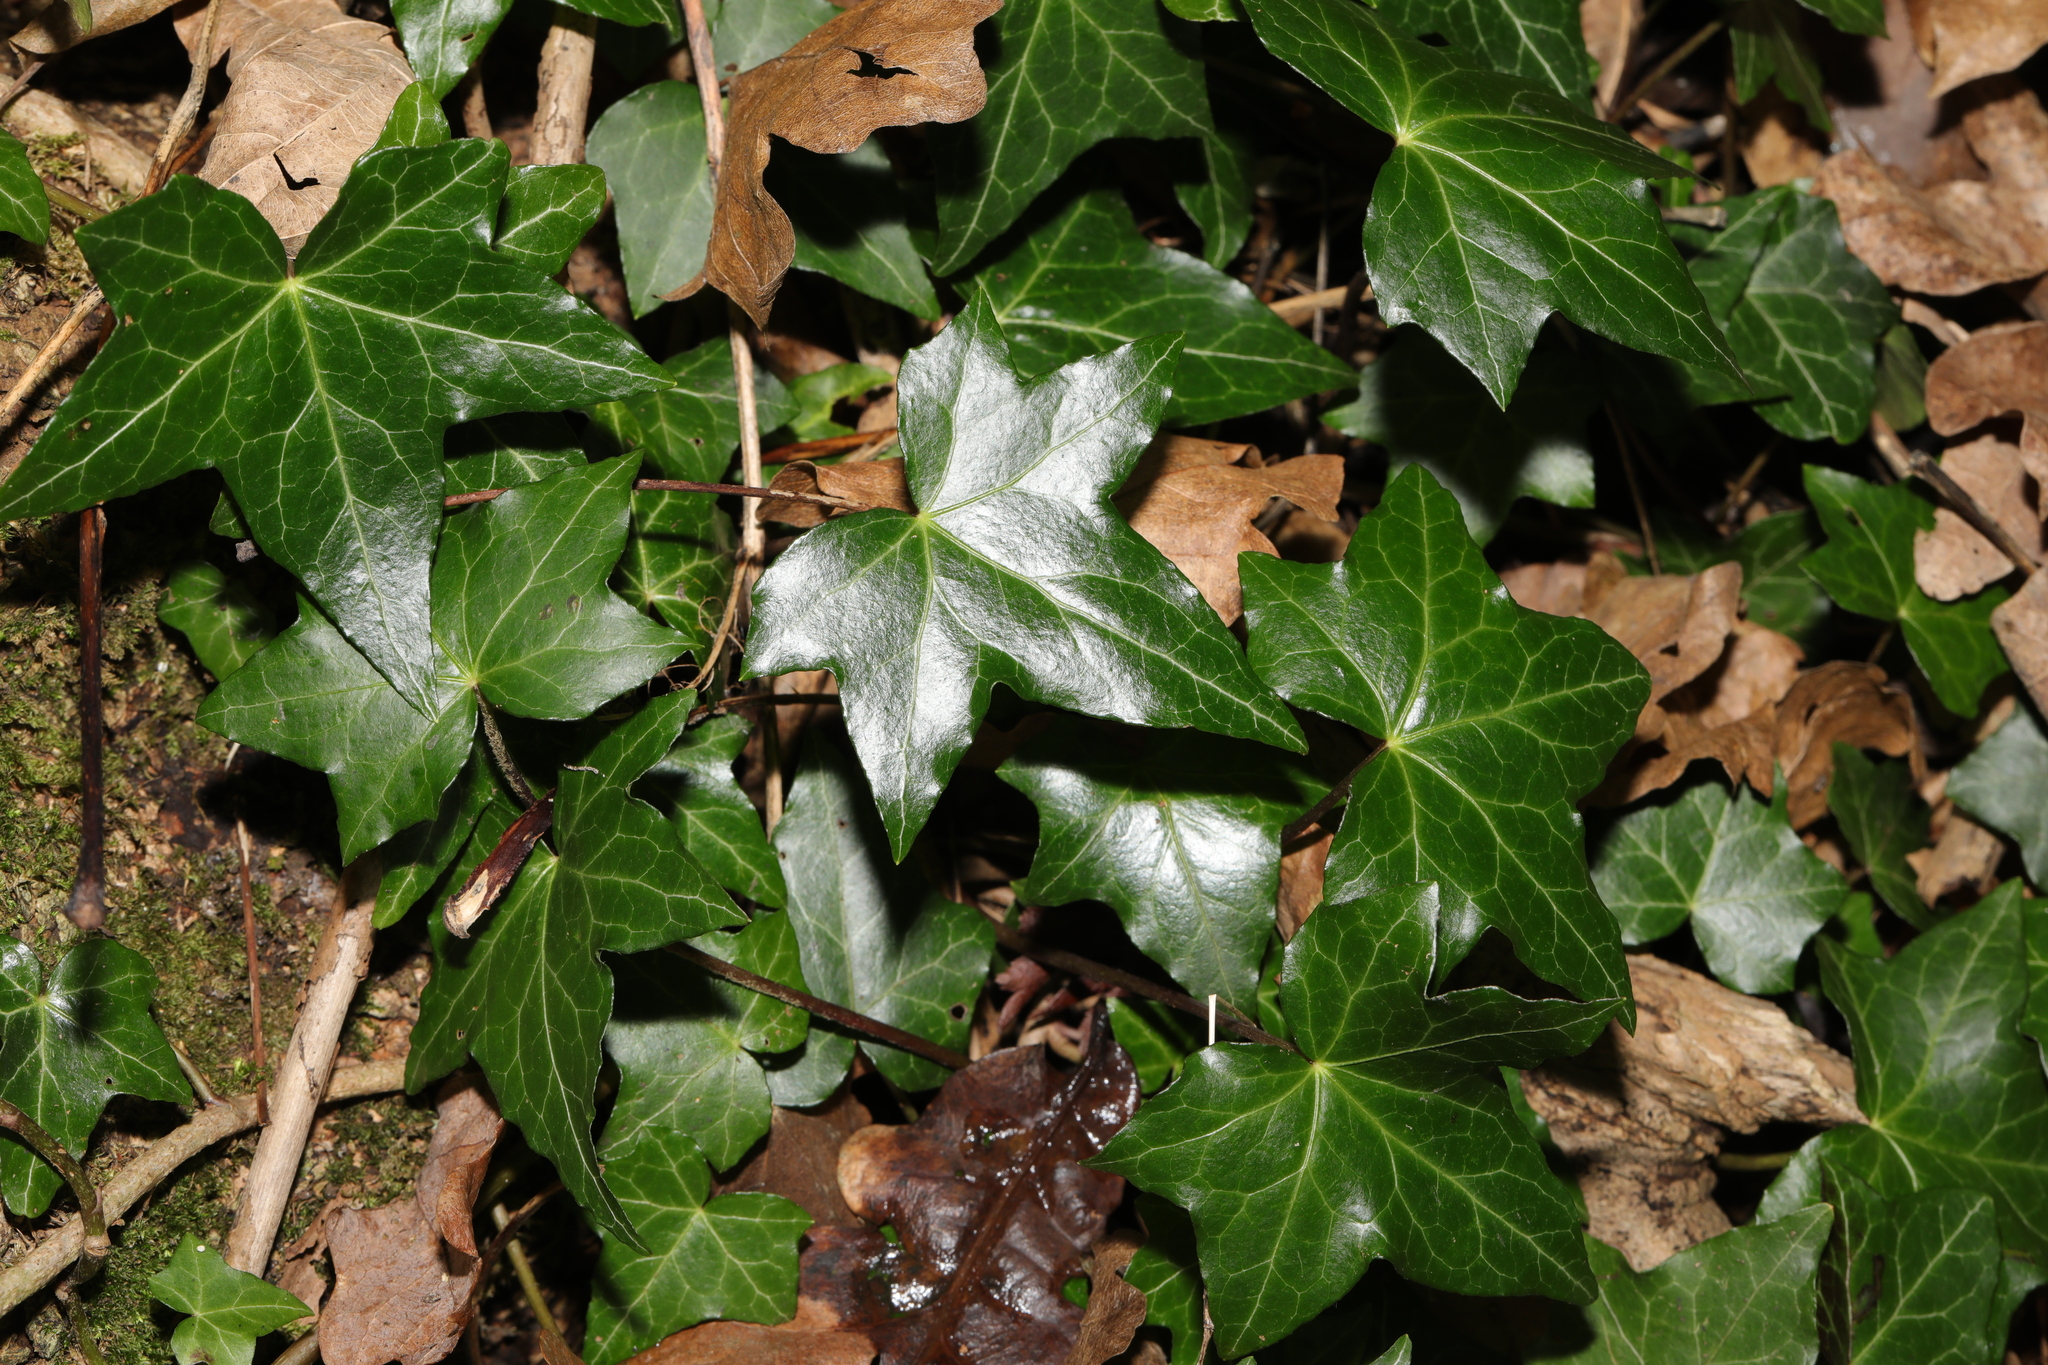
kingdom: Plantae
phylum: Tracheophyta
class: Magnoliopsida
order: Apiales
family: Araliaceae
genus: Hedera
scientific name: Hedera helix
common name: Ivy
